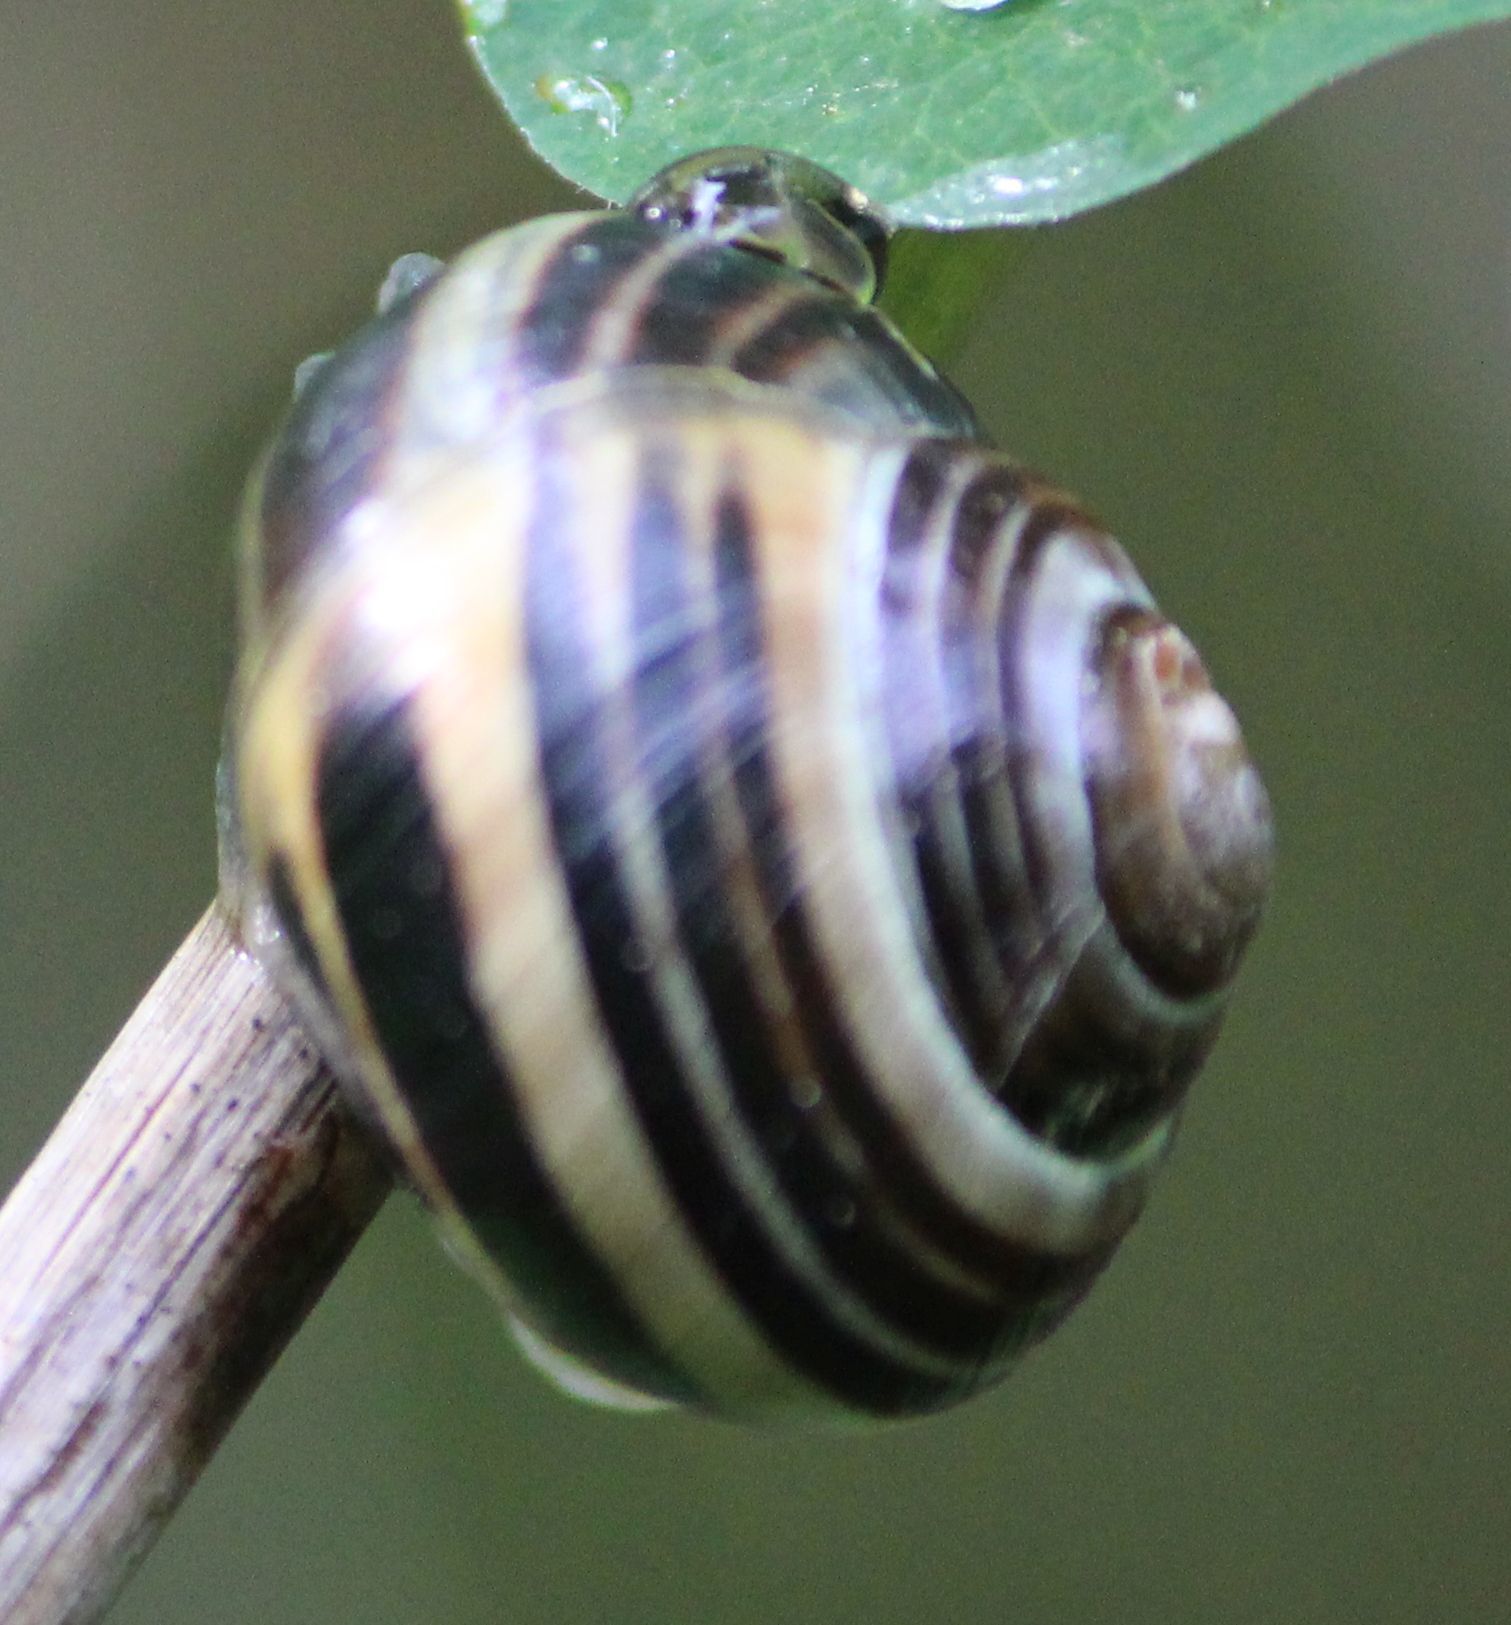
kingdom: Animalia
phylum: Mollusca
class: Gastropoda
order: Stylommatophora
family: Helicidae
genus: Cepaea
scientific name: Cepaea
